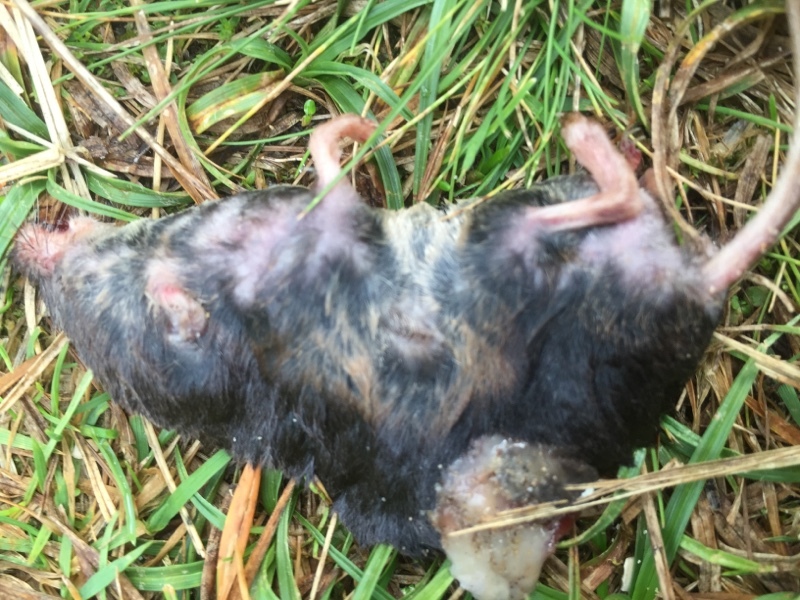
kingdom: Animalia
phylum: Chordata
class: Mammalia
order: Soricomorpha
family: Soricidae
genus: Sorex
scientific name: Sorex araneus
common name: Common shrew
